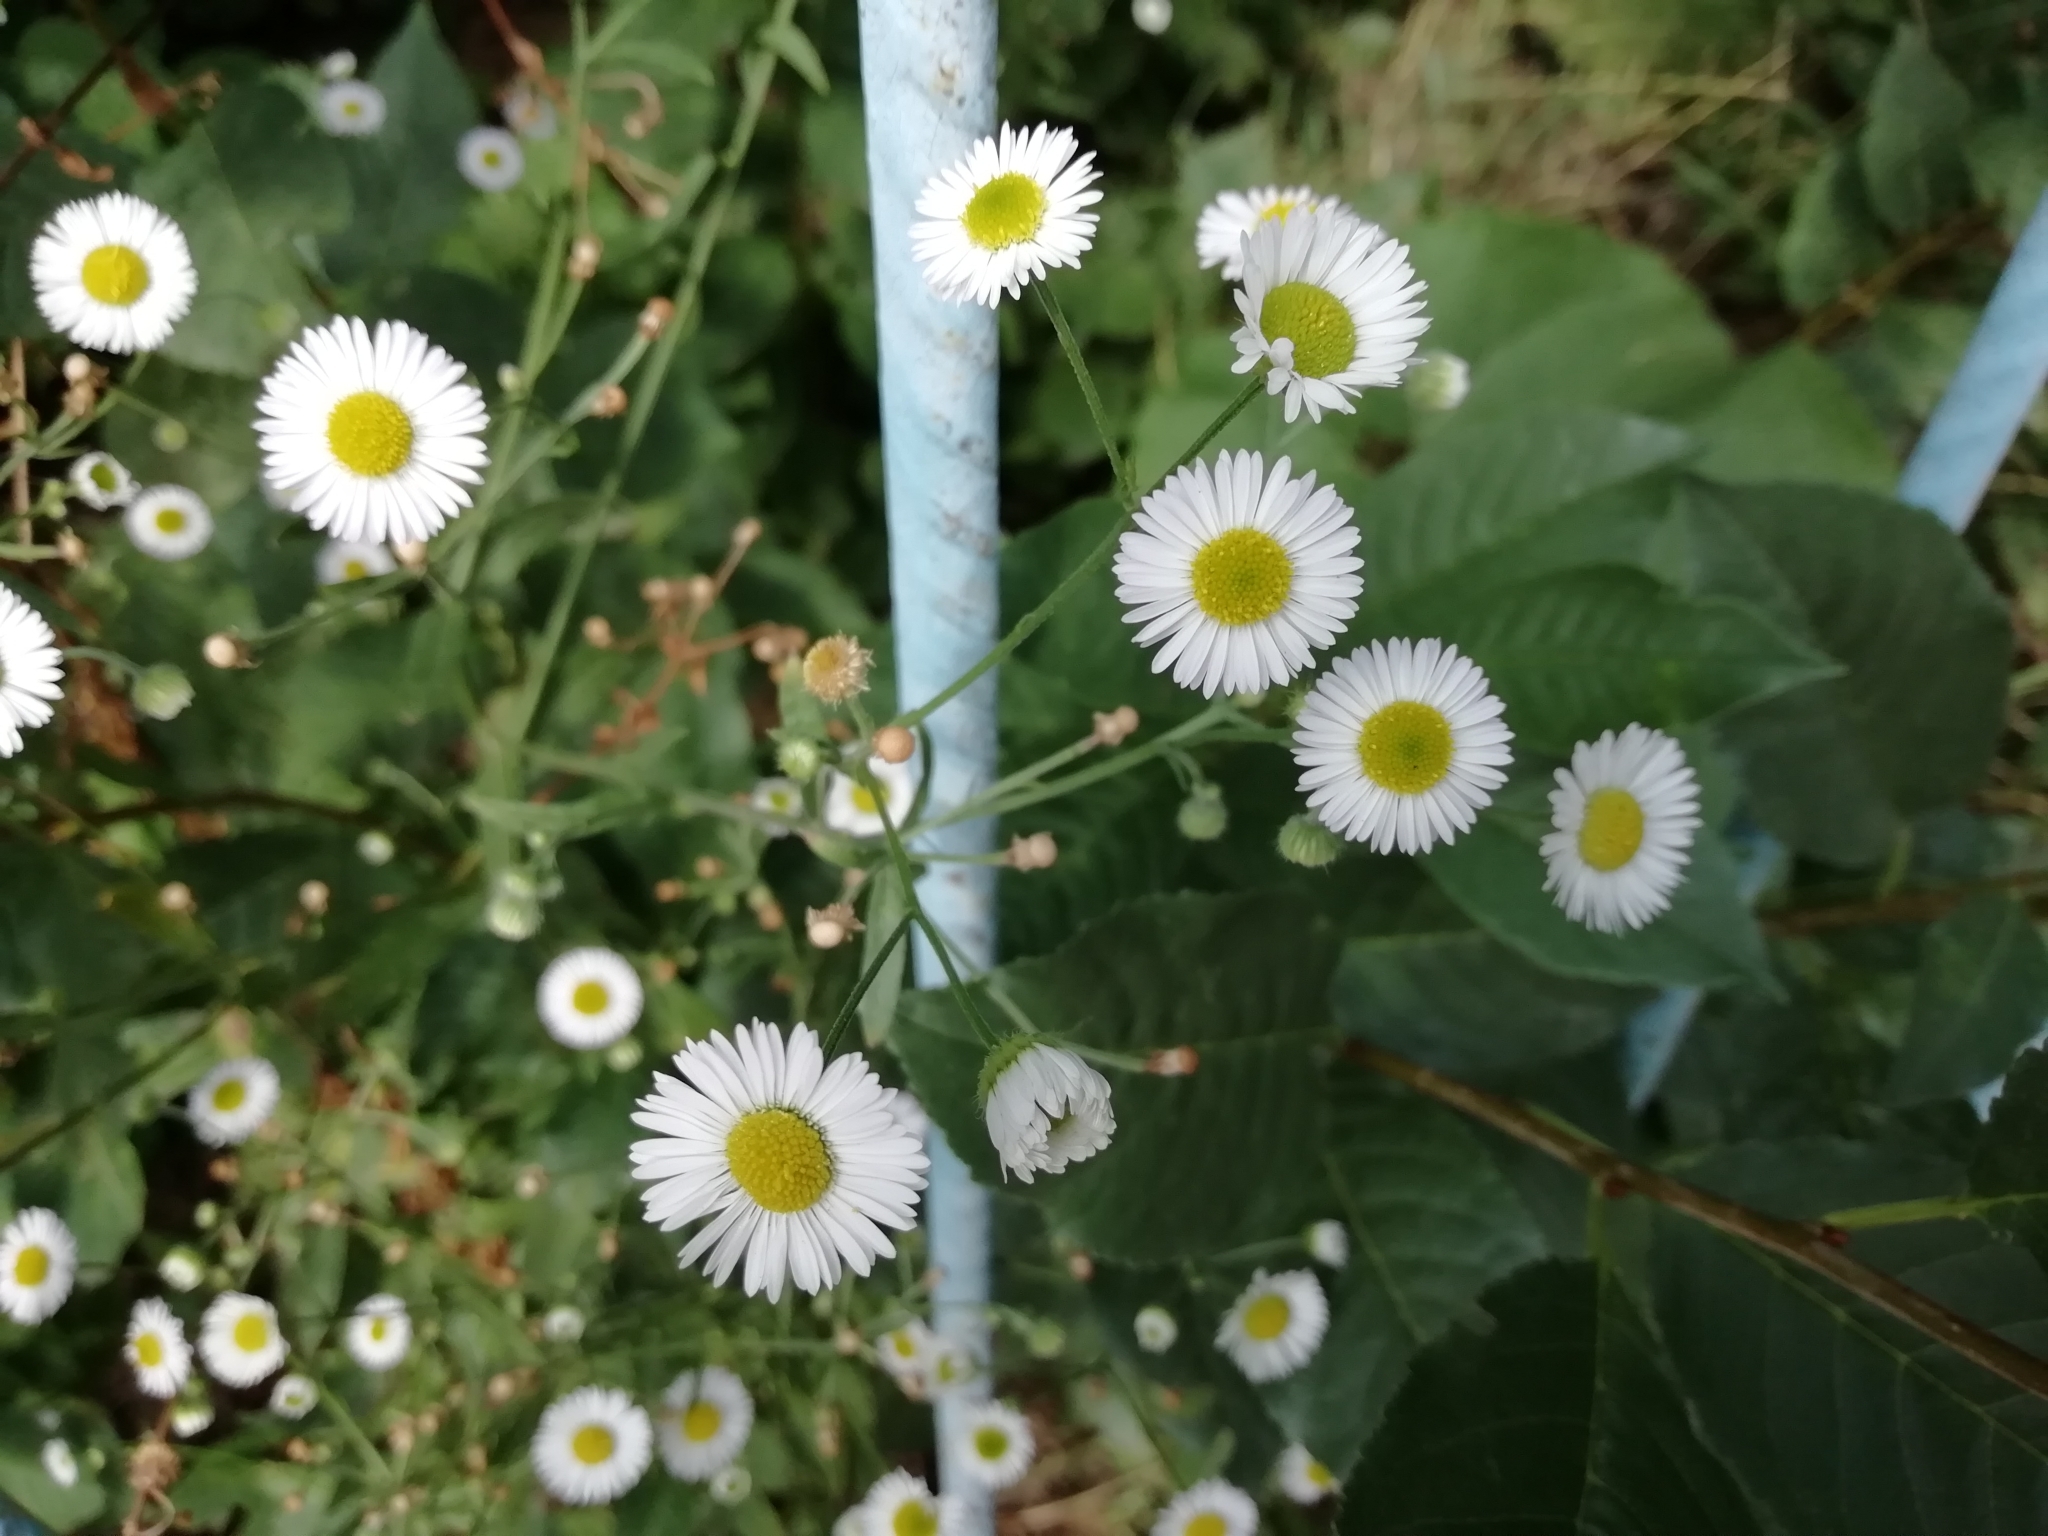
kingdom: Plantae
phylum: Tracheophyta
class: Magnoliopsida
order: Asterales
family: Asteraceae
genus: Erigeron
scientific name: Erigeron annuus
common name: Tall fleabane
